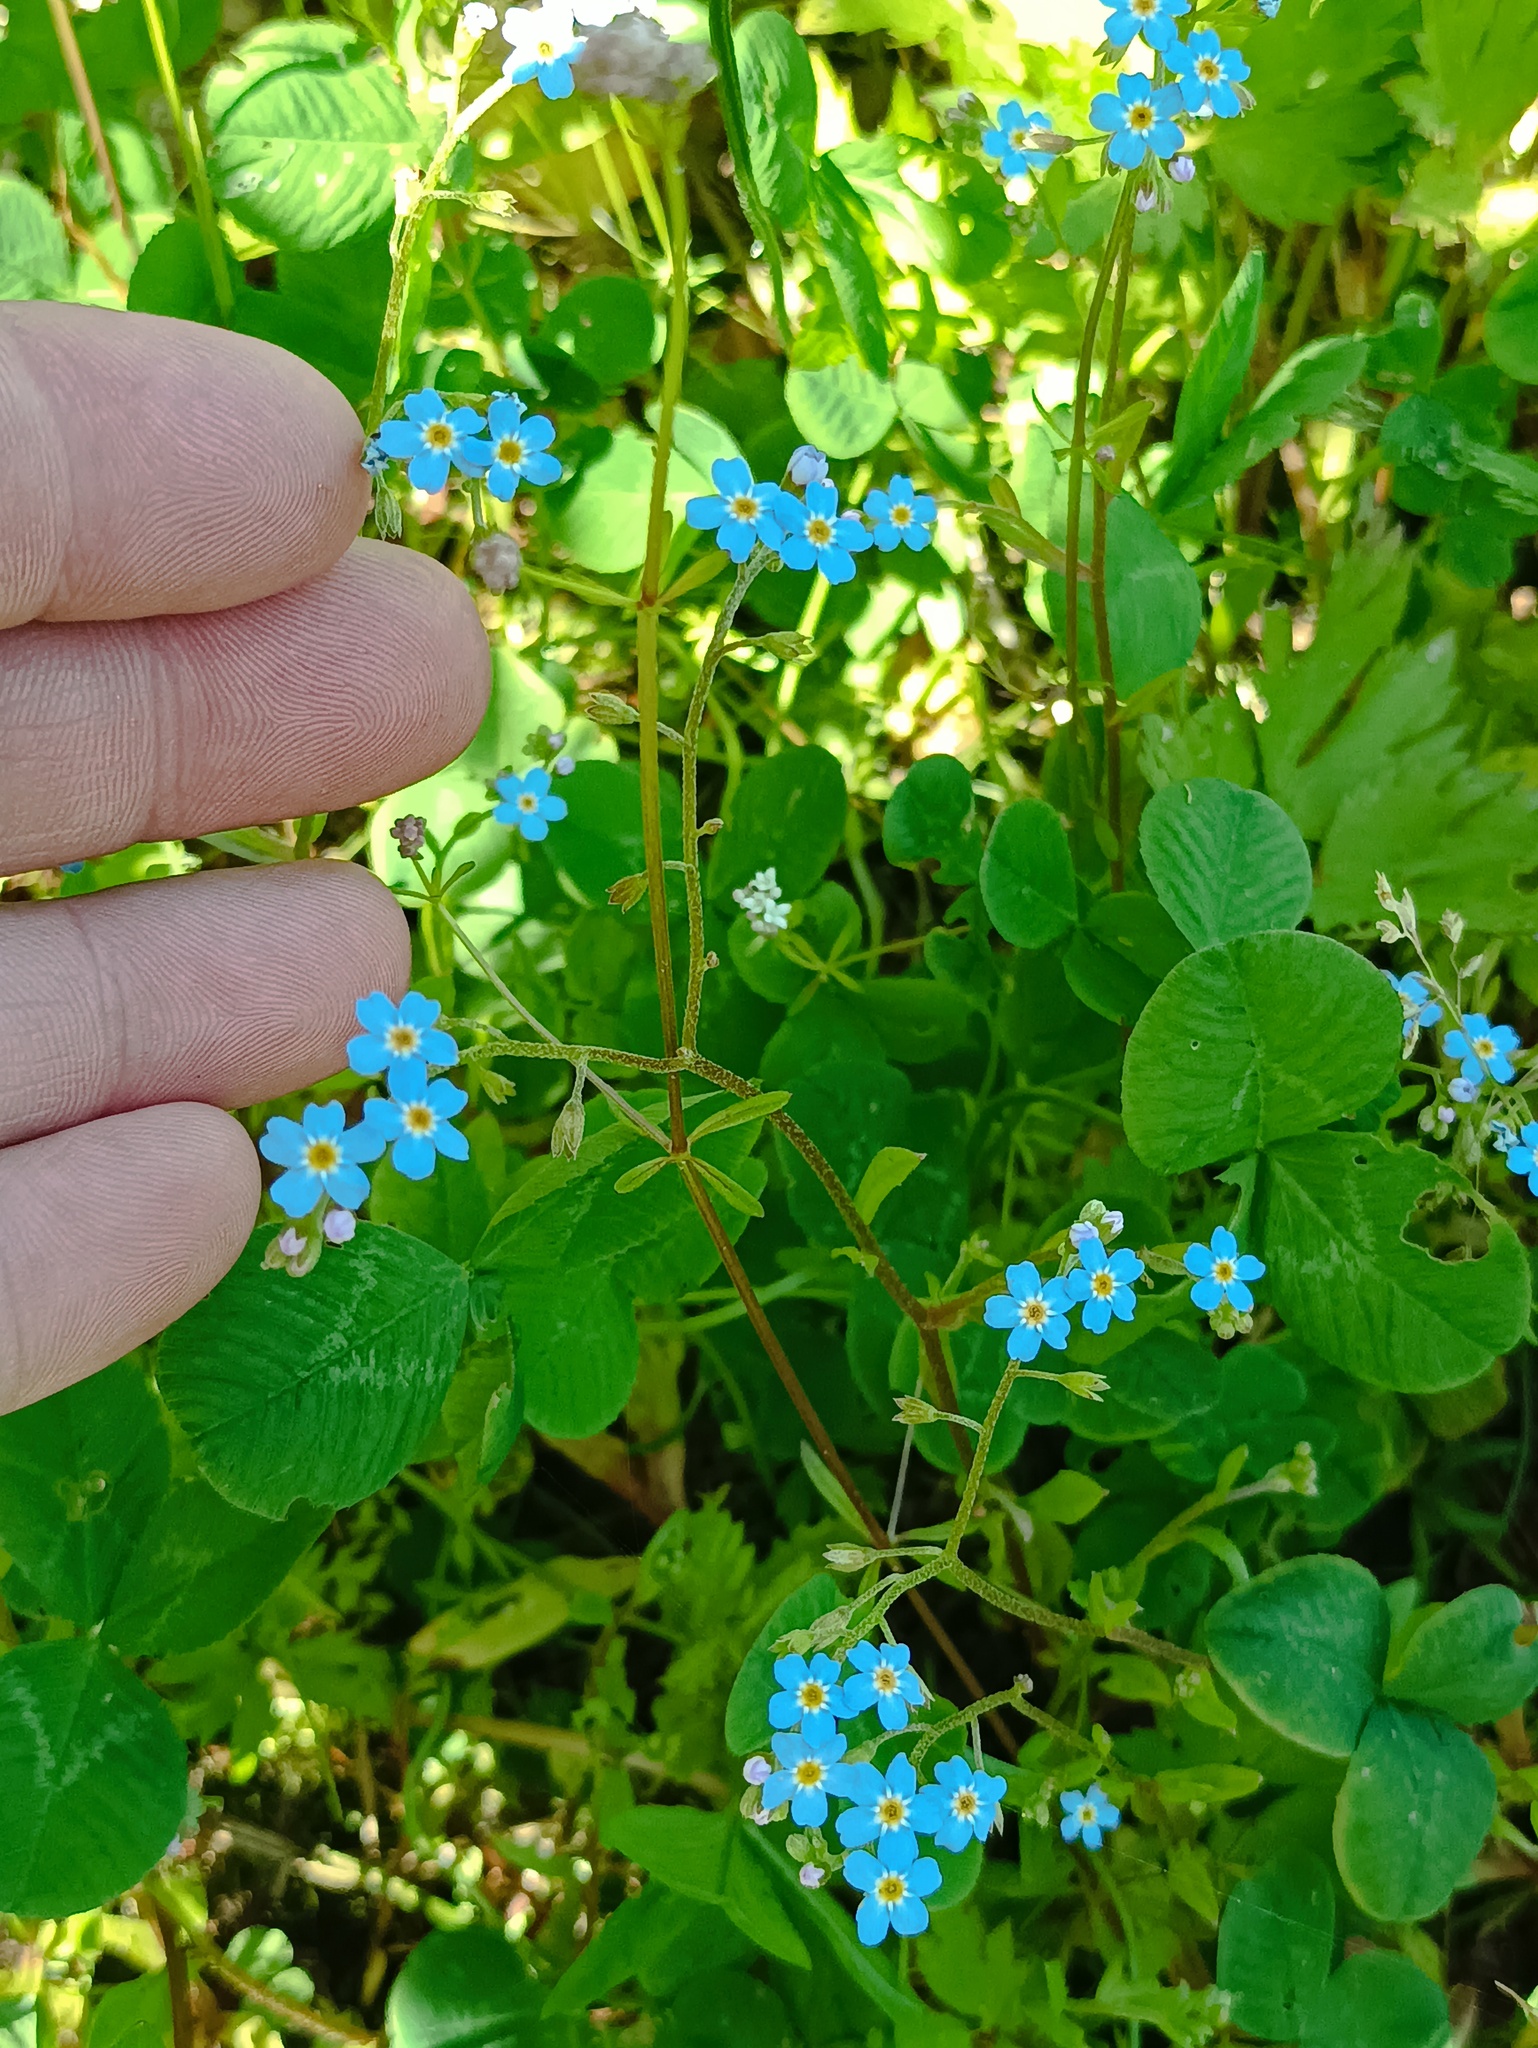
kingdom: Plantae
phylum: Tracheophyta
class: Magnoliopsida
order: Boraginales
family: Boraginaceae
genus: Myosotis
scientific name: Myosotis scorpioides
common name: Water forget-me-not
